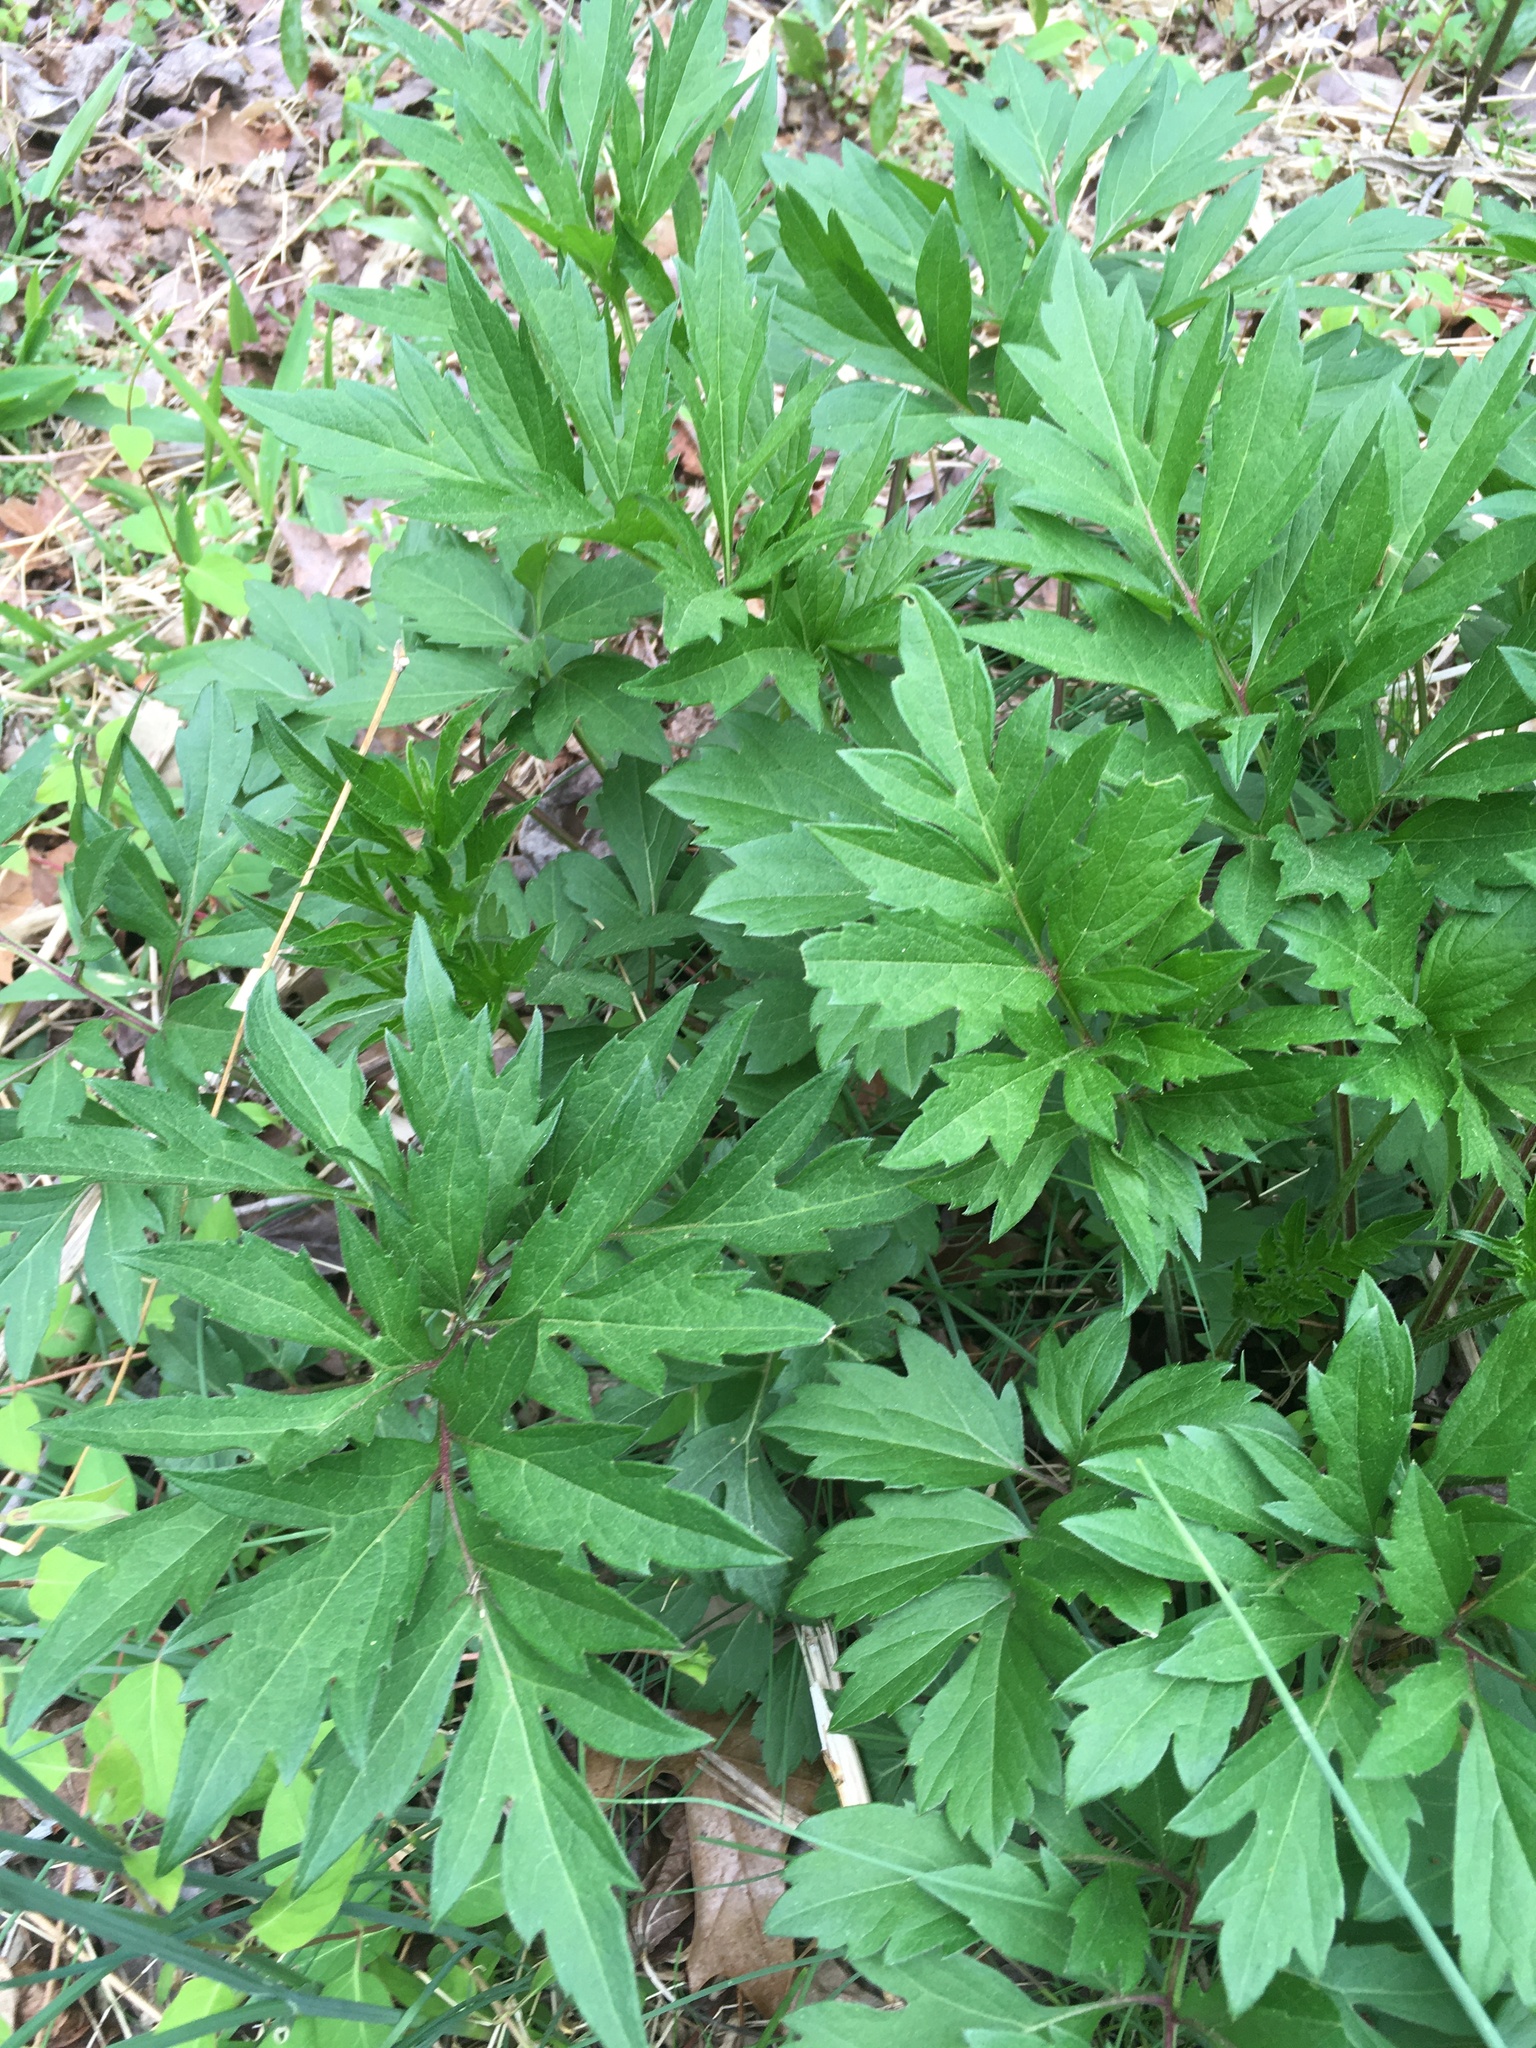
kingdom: Plantae
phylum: Tracheophyta
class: Magnoliopsida
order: Asterales
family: Asteraceae
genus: Rudbeckia
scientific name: Rudbeckia laciniata
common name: Coneflower
